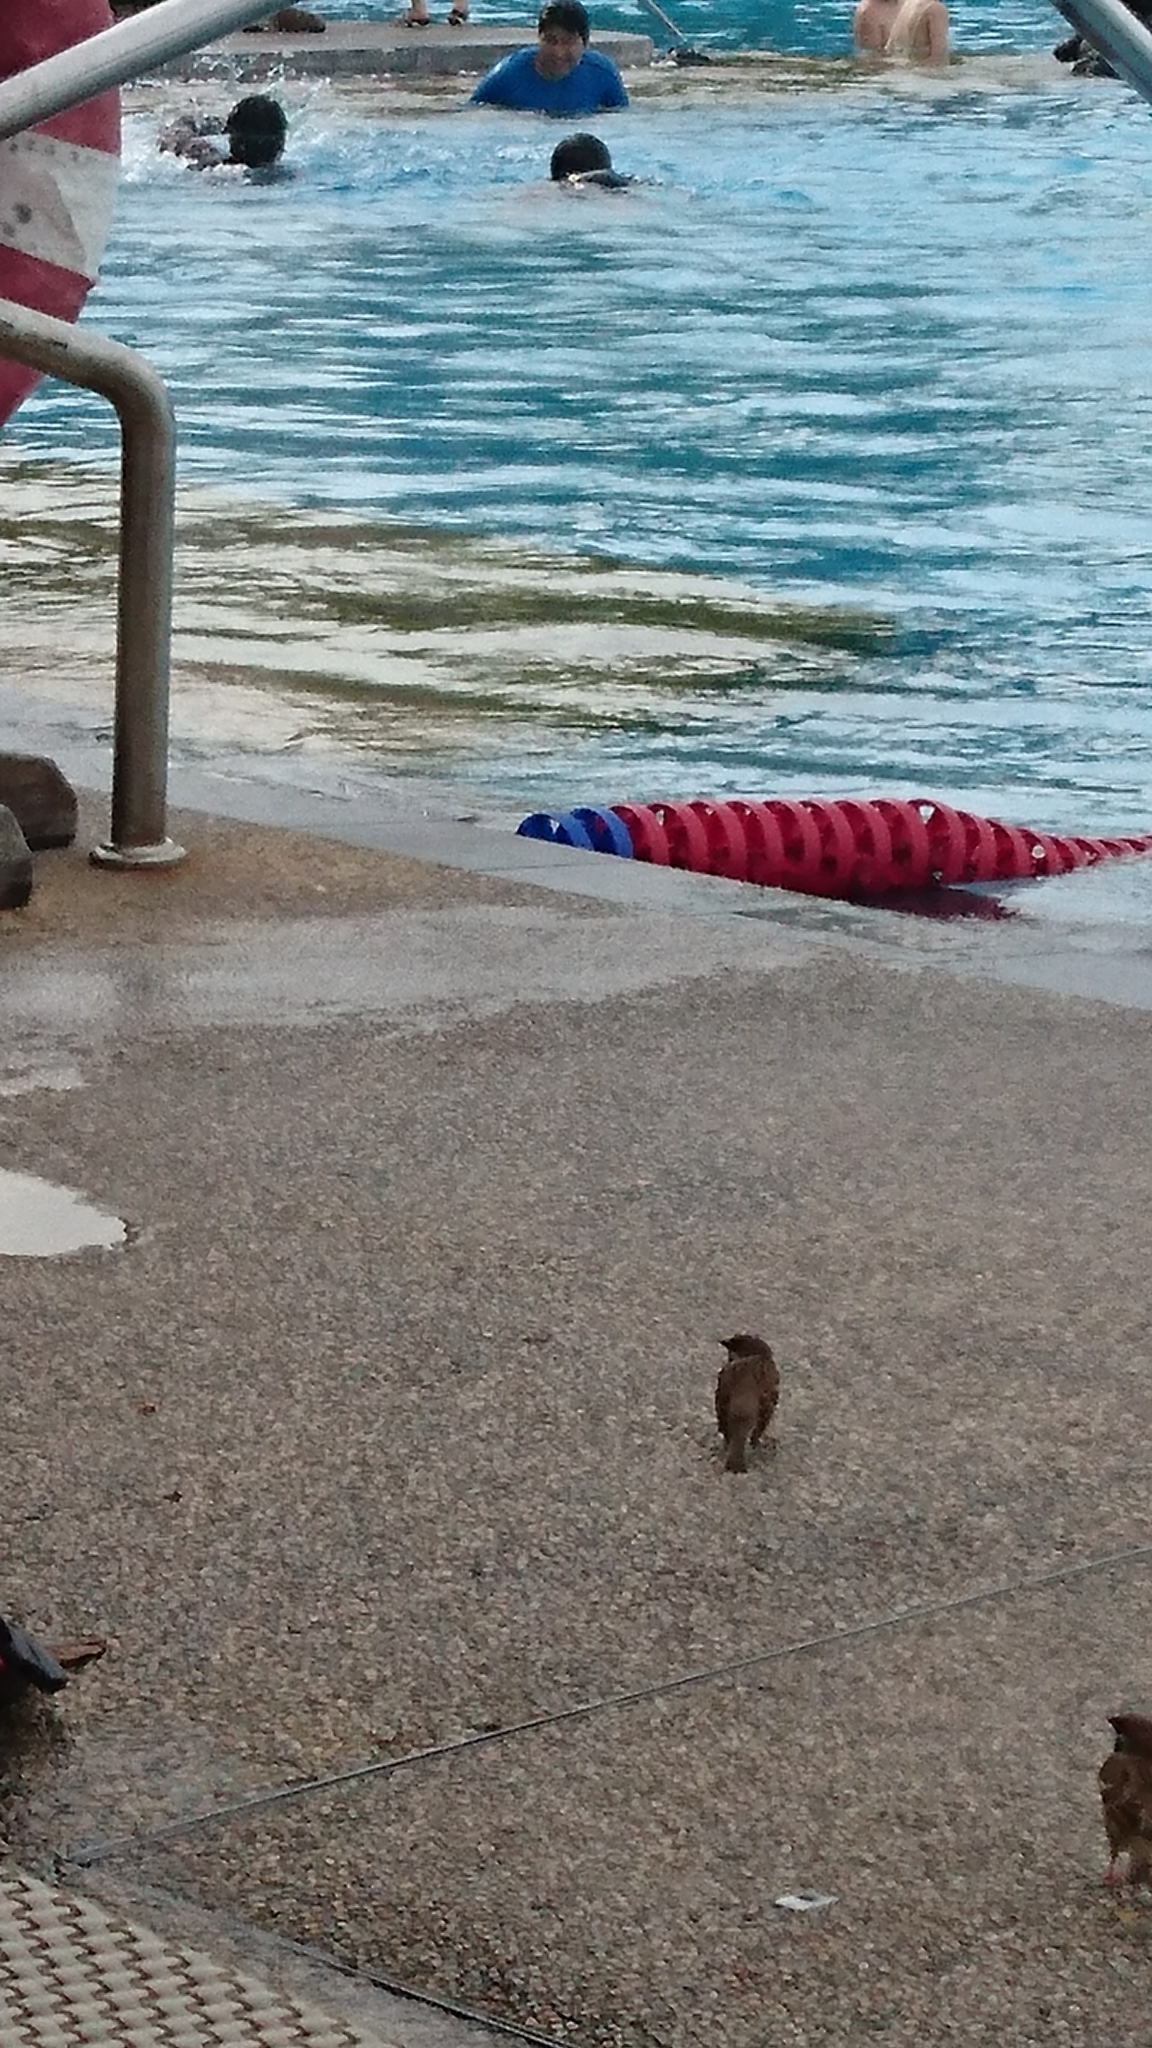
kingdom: Animalia
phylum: Chordata
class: Aves
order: Passeriformes
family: Passeridae
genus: Passer
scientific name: Passer montanus
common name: Eurasian tree sparrow
